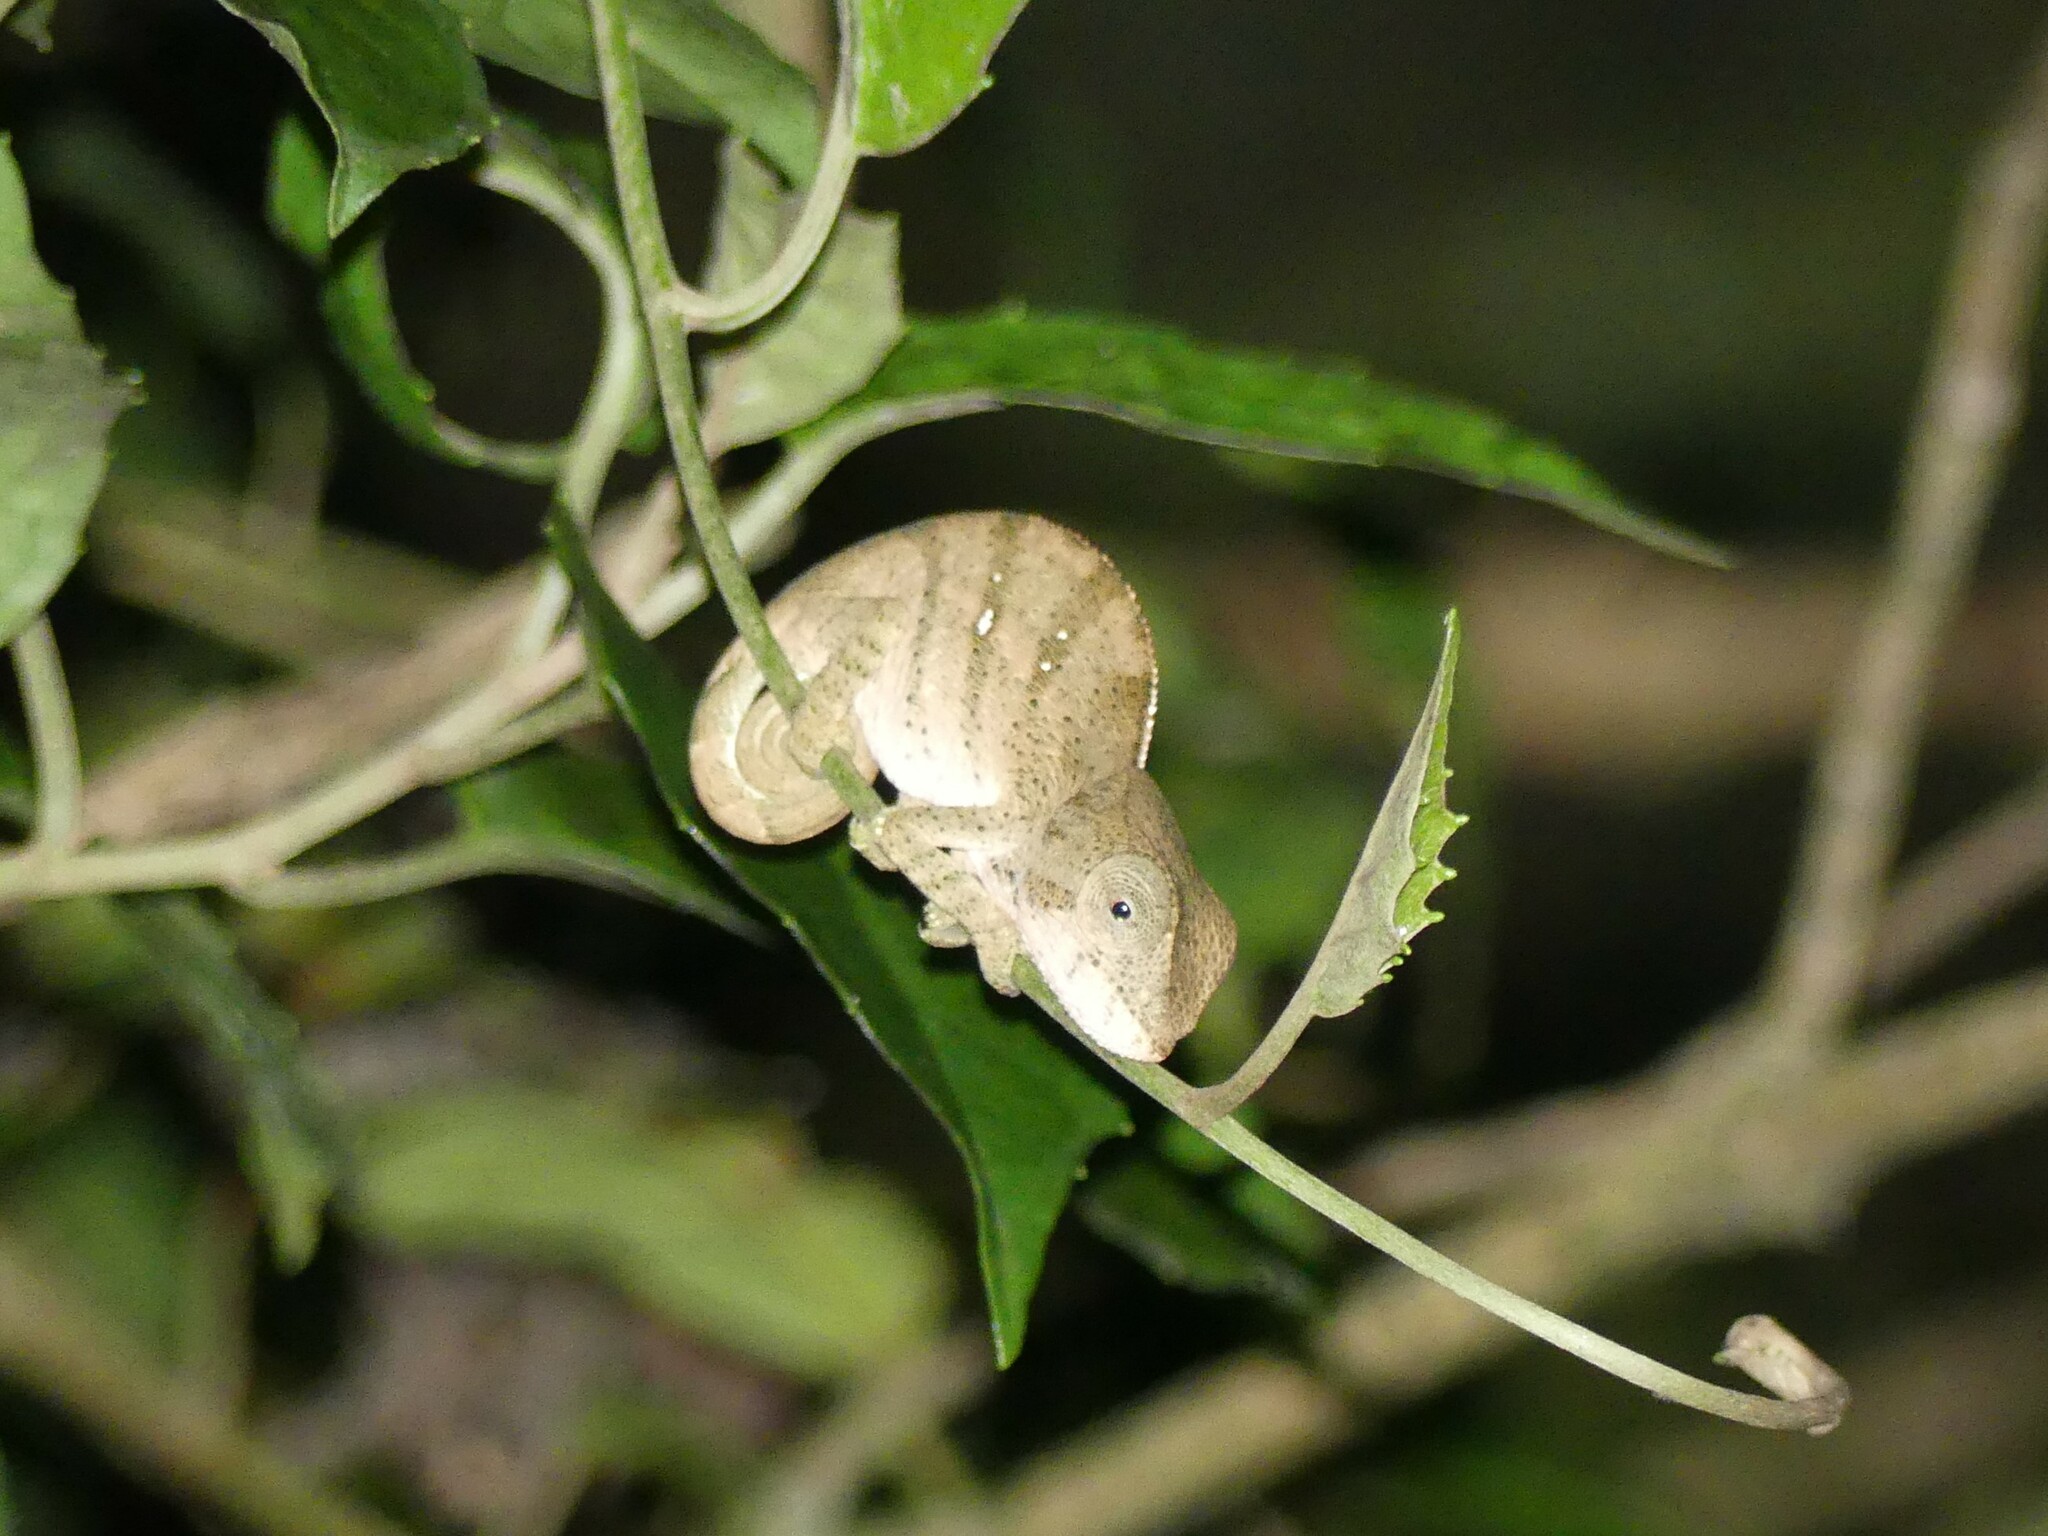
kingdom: Animalia
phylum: Chordata
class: Squamata
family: Chamaeleonidae
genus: Calumma
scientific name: Calumma oshaughnessyi
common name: O'shaughnessy's chameleon
